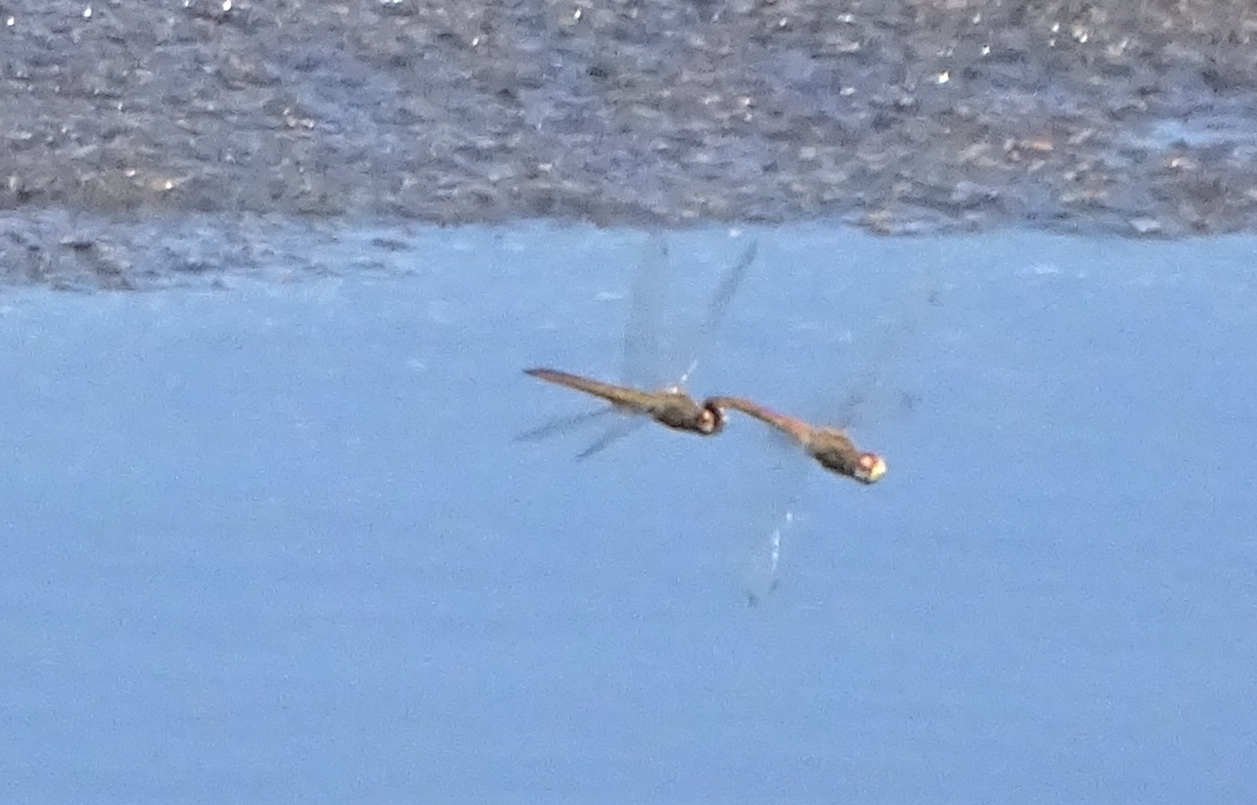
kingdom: Animalia
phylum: Arthropoda
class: Insecta
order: Odonata
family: Libellulidae
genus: Pantala
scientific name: Pantala flavescens
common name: Wandering glider
